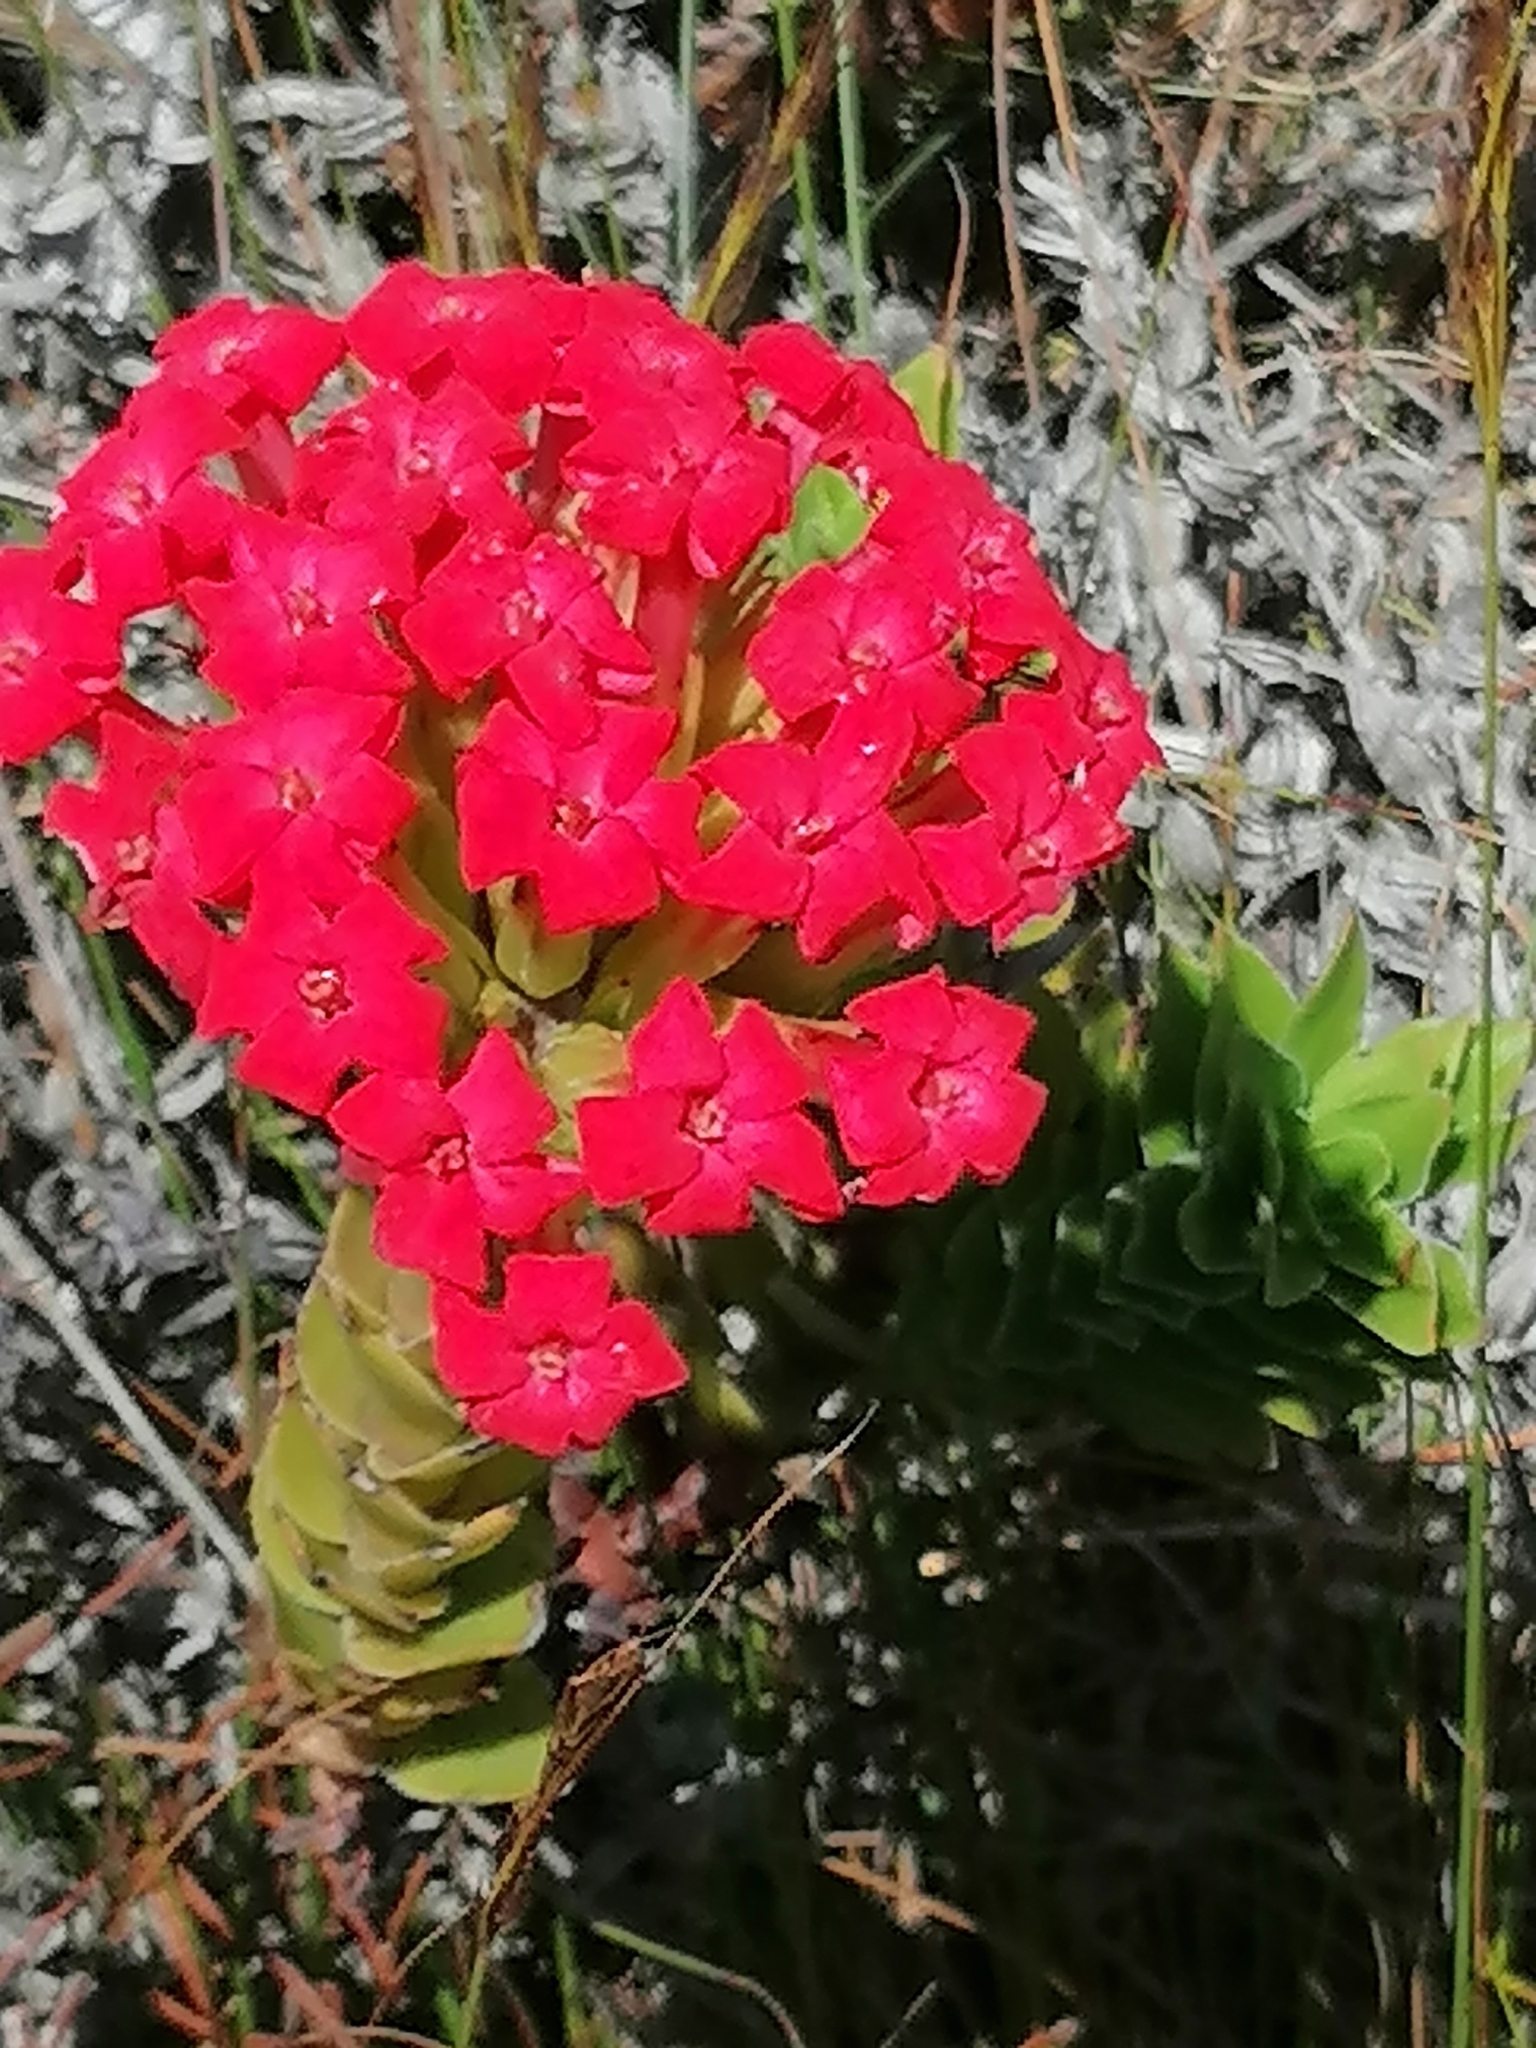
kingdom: Plantae
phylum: Tracheophyta
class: Magnoliopsida
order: Saxifragales
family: Crassulaceae
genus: Crassula
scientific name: Crassula coccinea
